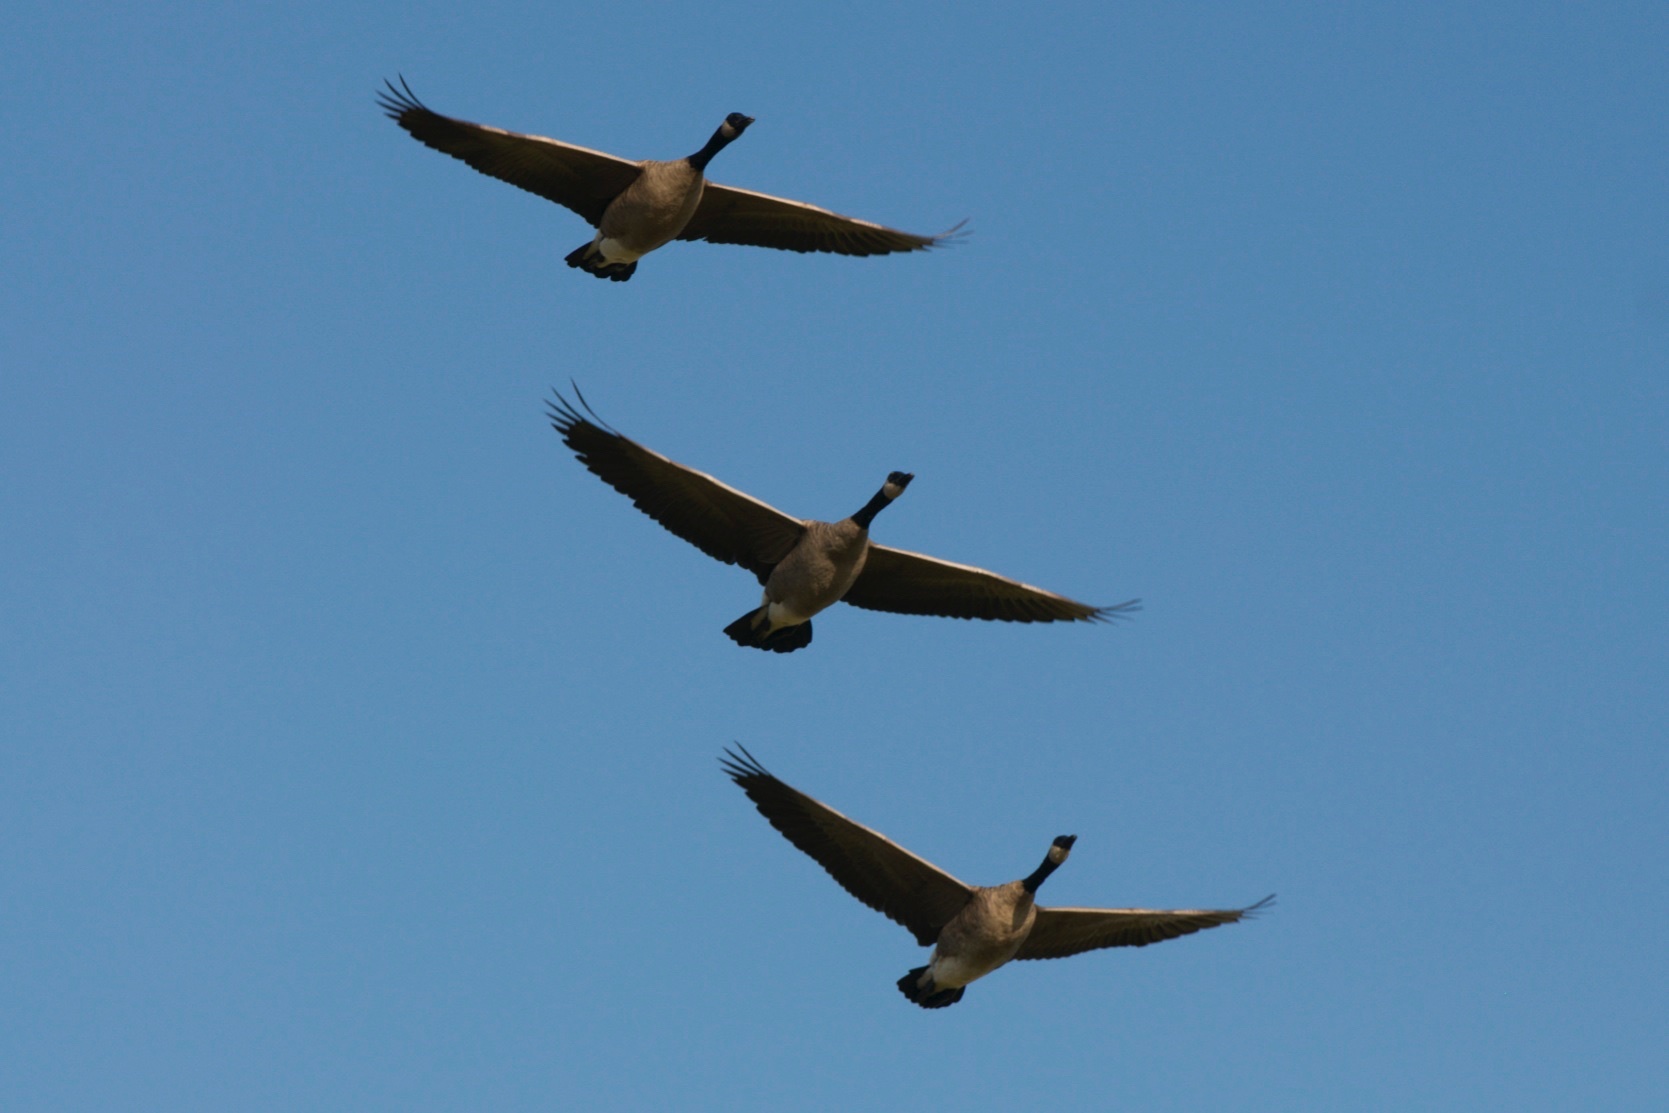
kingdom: Animalia
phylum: Chordata
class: Aves
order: Anseriformes
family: Anatidae
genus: Branta
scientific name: Branta canadensis
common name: Canada goose
